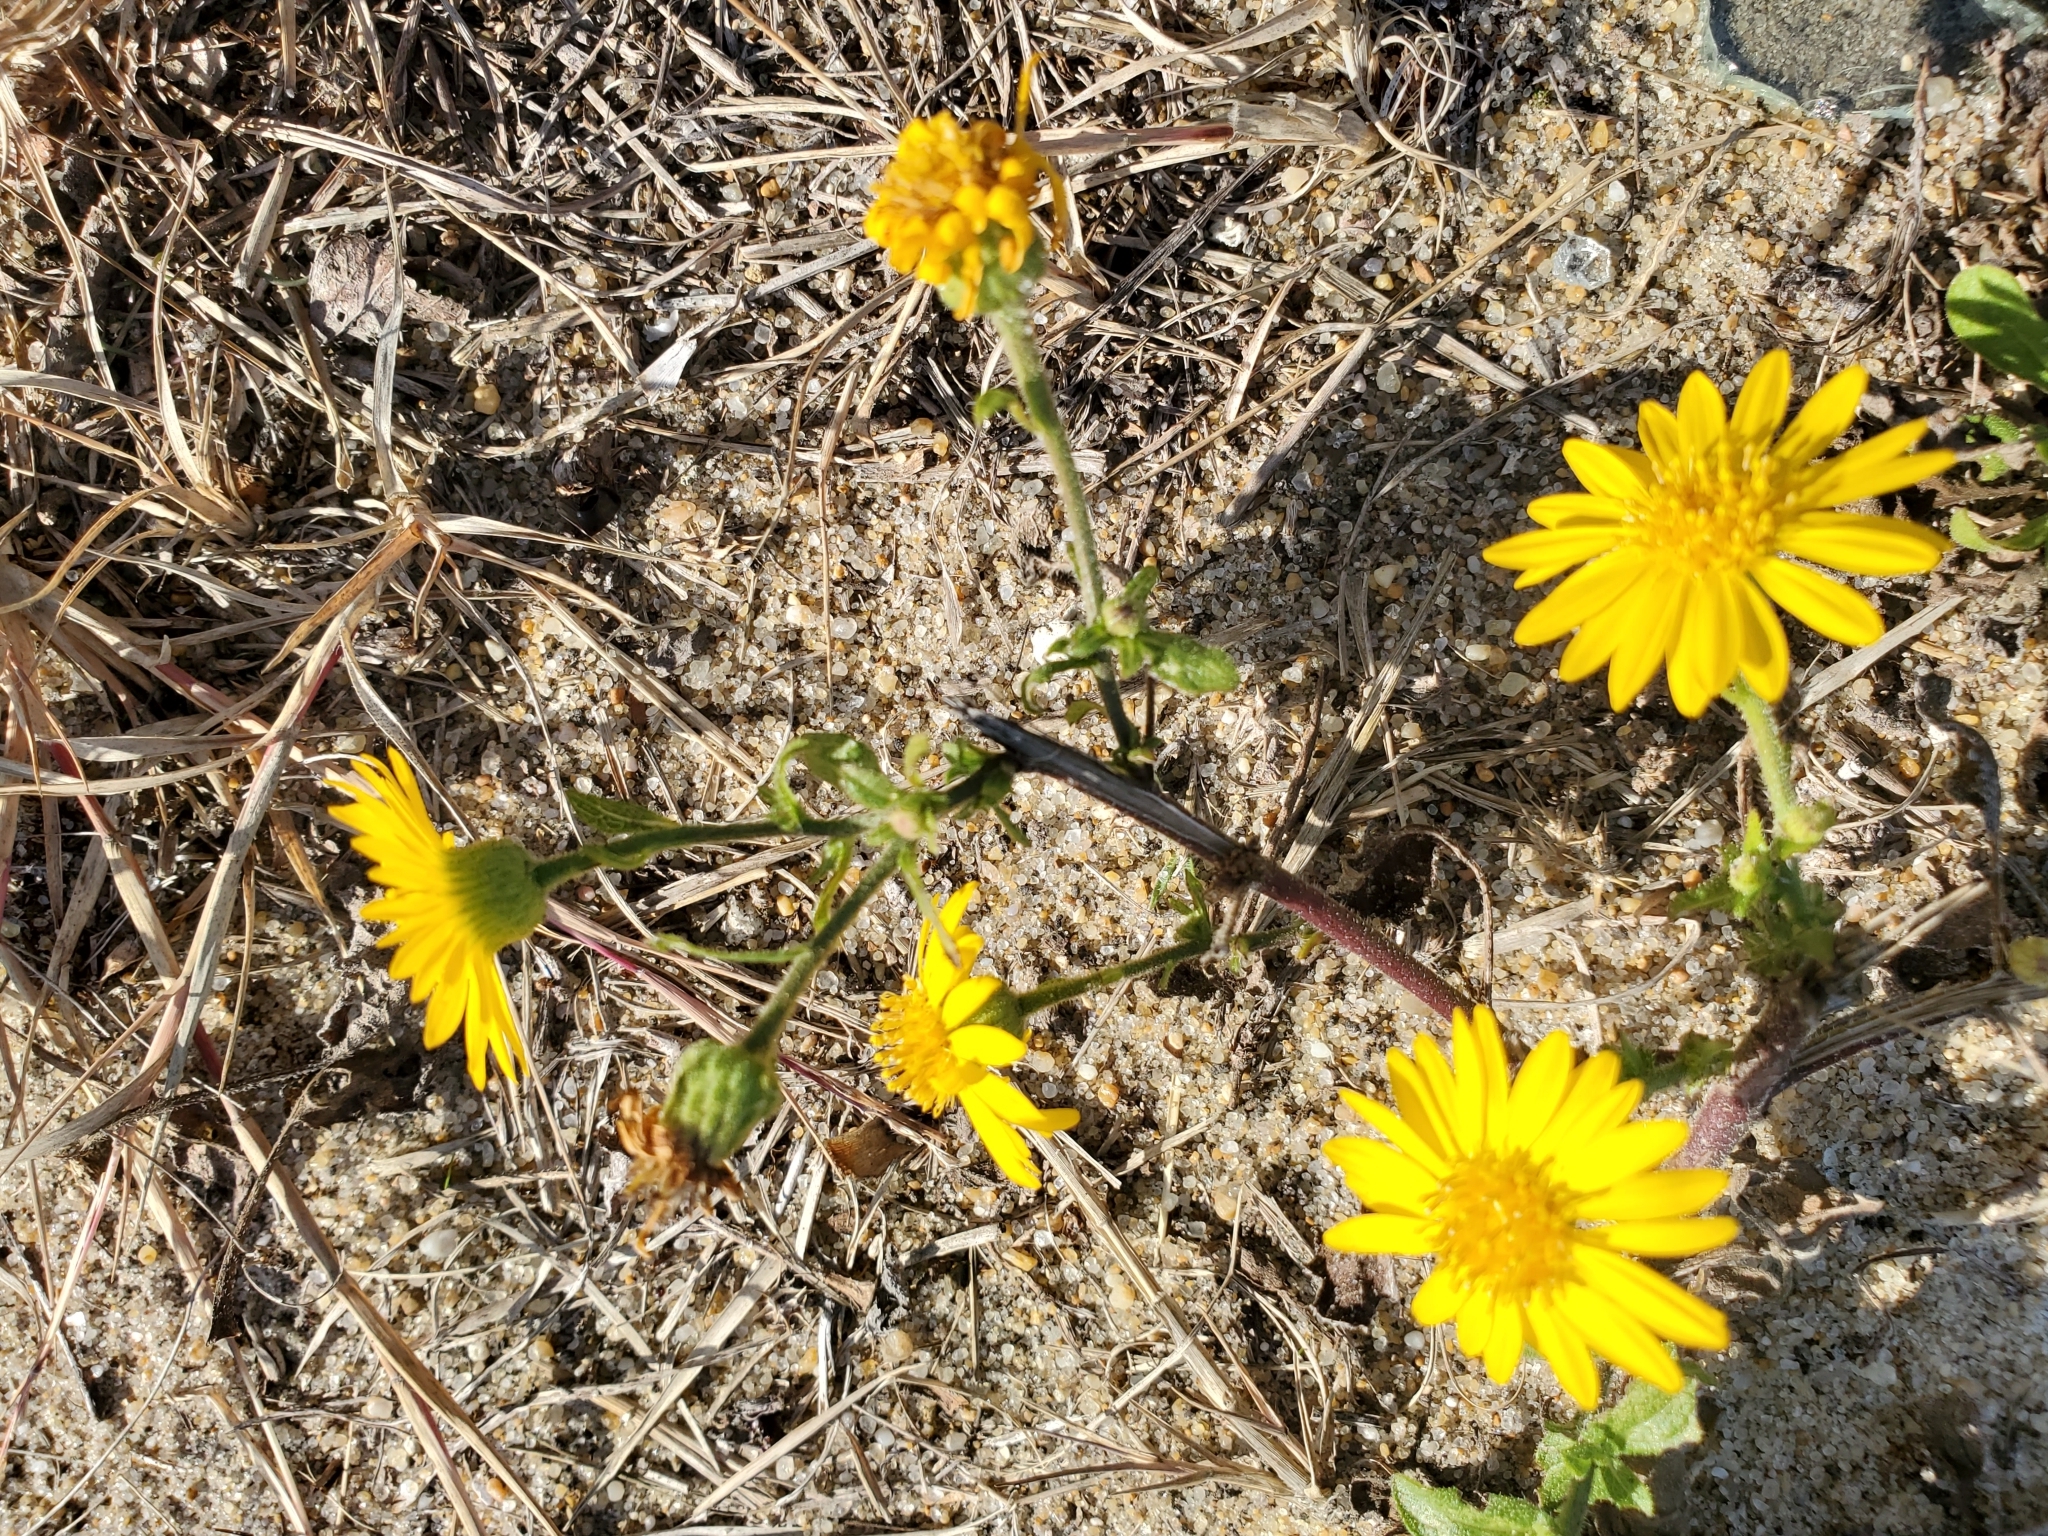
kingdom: Plantae
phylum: Tracheophyta
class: Magnoliopsida
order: Asterales
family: Asteraceae
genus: Heterotheca
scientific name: Heterotheca subaxillaris
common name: Camphorweed
